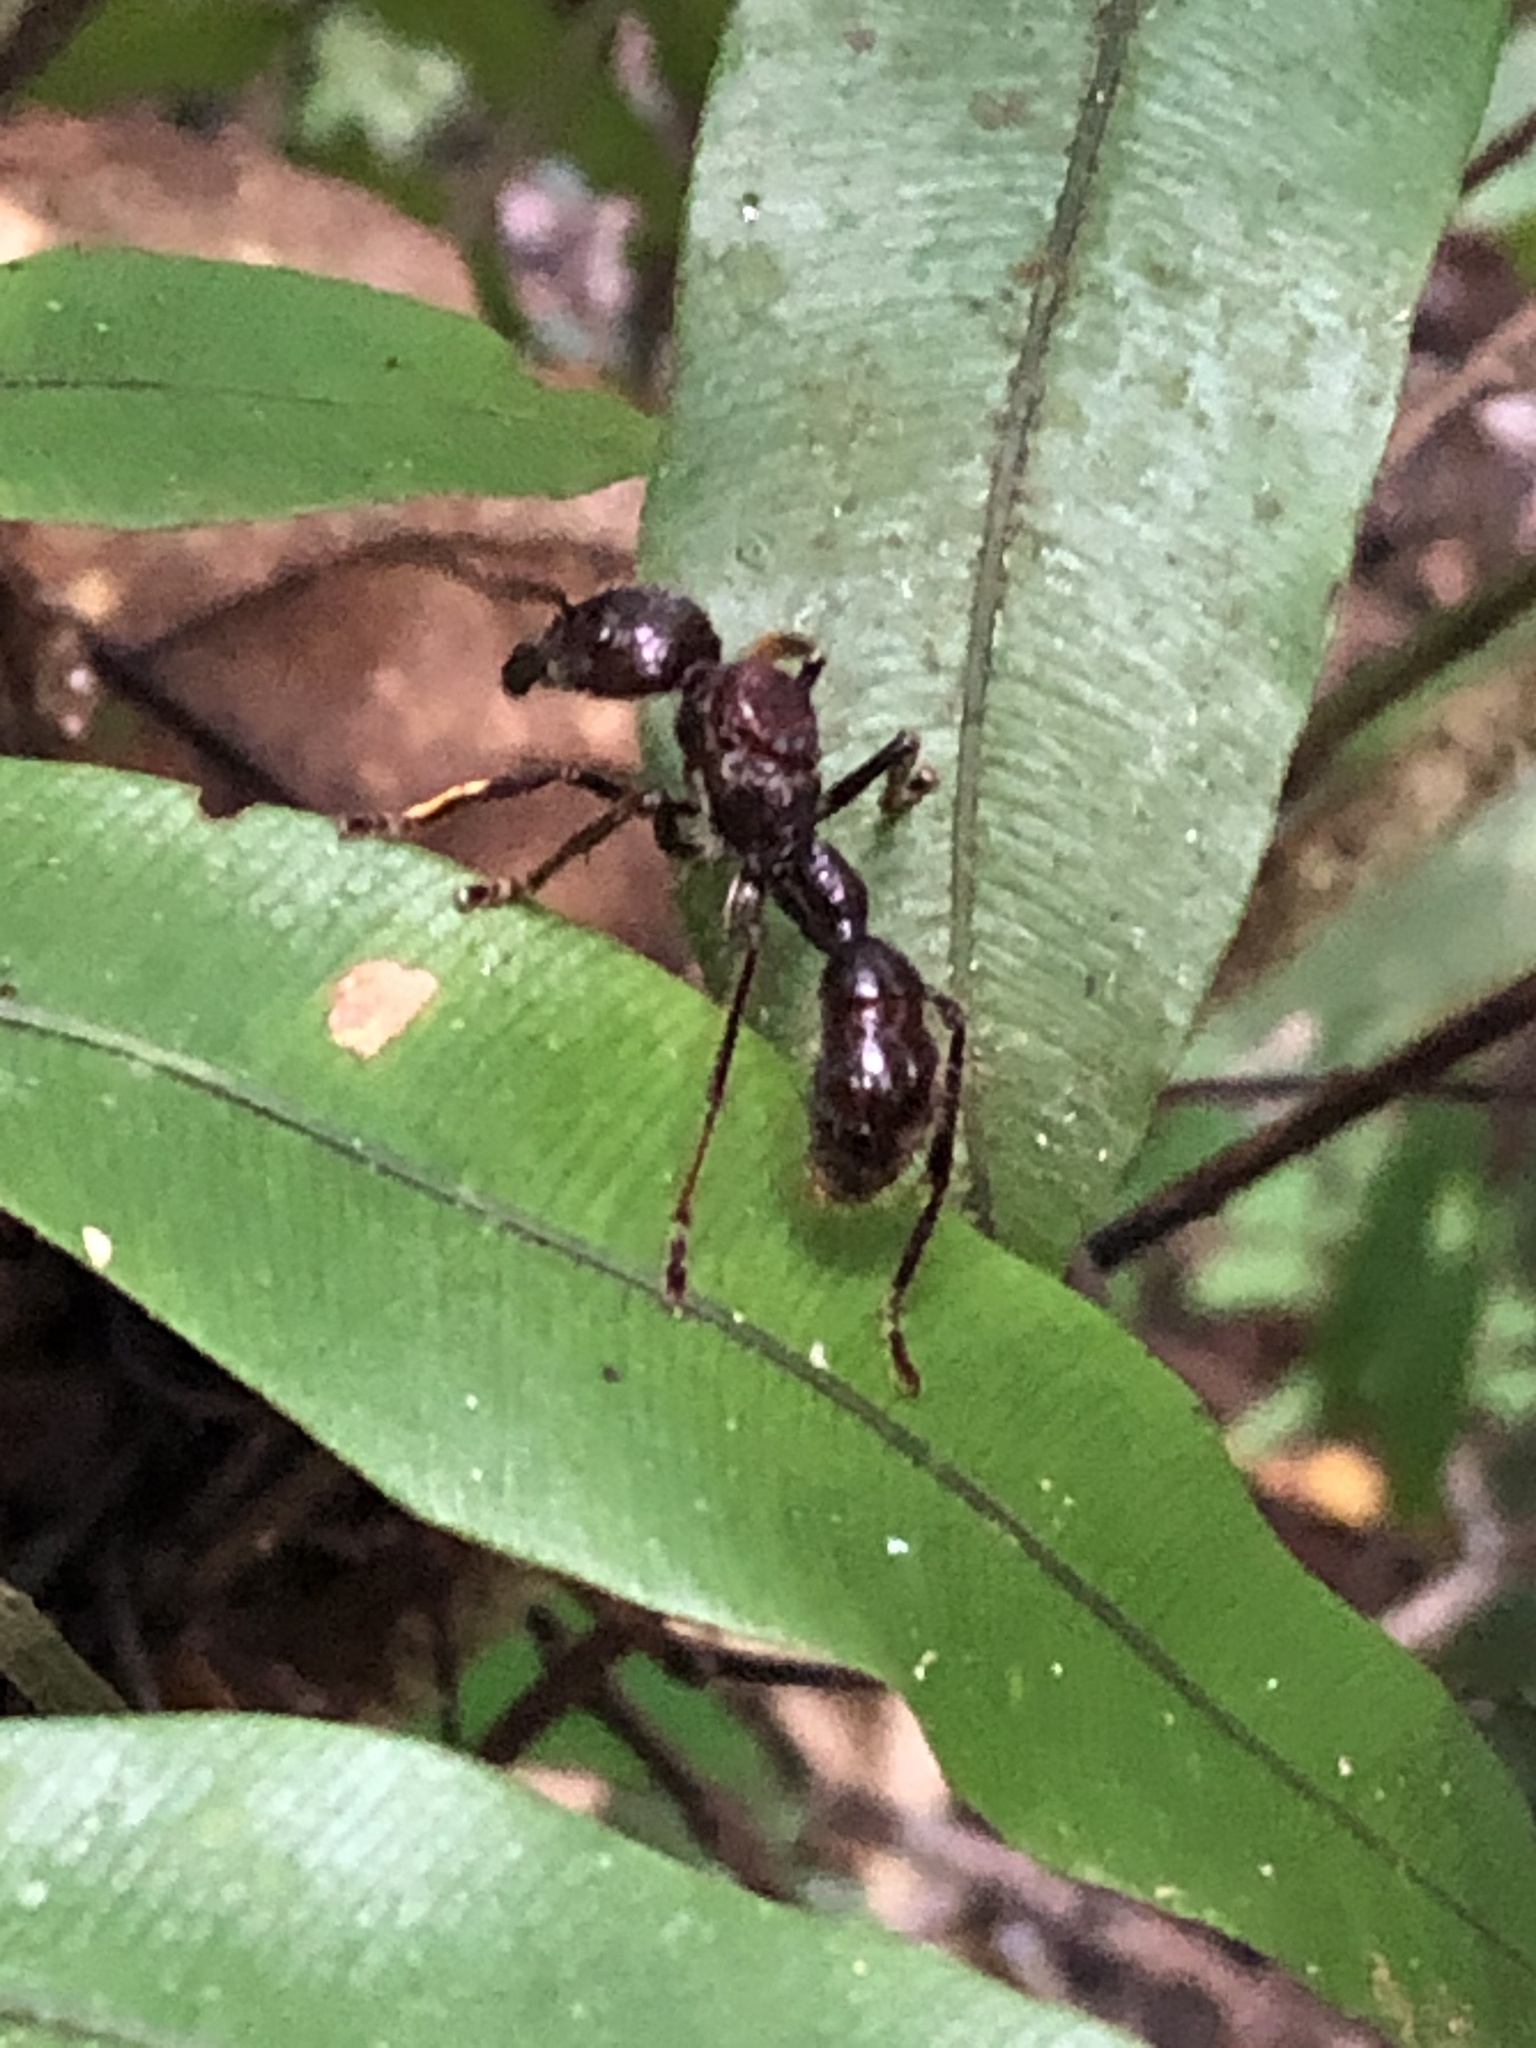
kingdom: Animalia
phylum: Arthropoda
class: Insecta
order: Hymenoptera
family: Formicidae
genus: Paraponera
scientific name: Paraponera clavata
